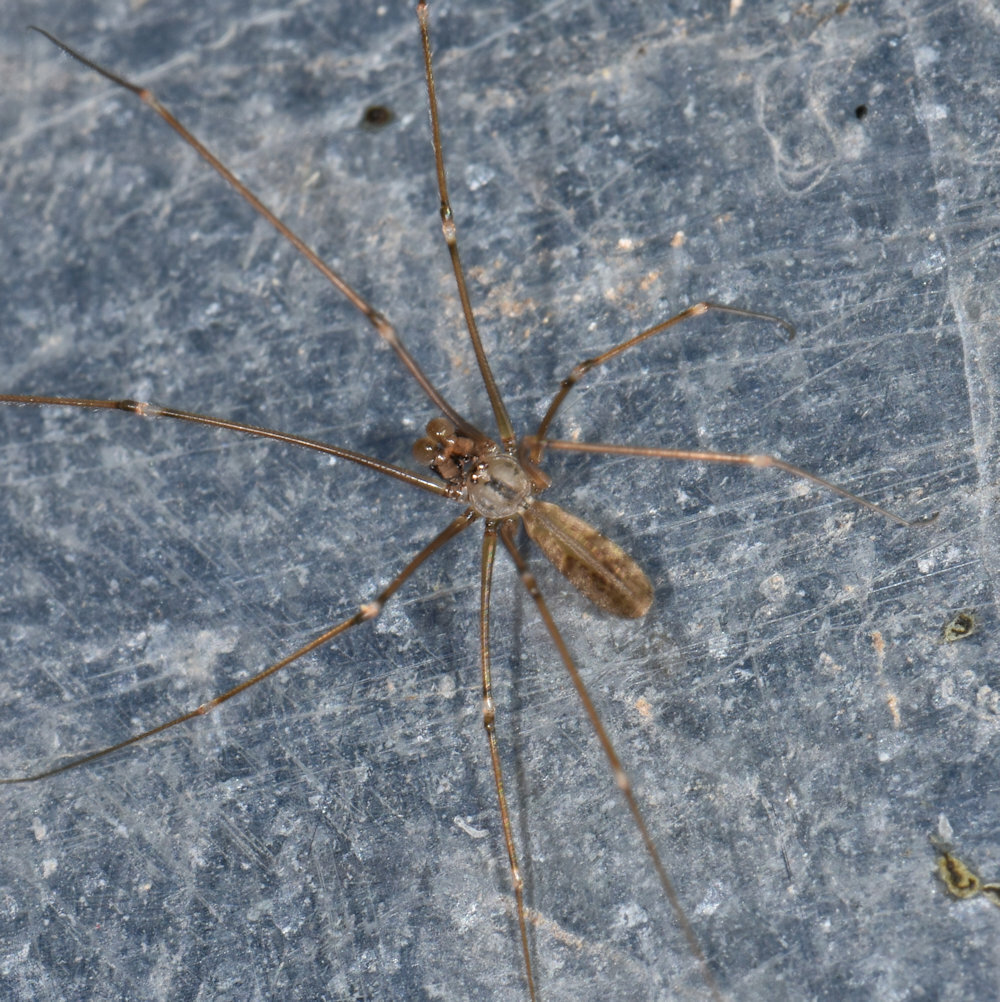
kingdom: Animalia
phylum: Arthropoda
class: Arachnida
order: Araneae
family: Pholcidae
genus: Pholcus
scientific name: Pholcus opilionoides
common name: Daddylongleg spider
